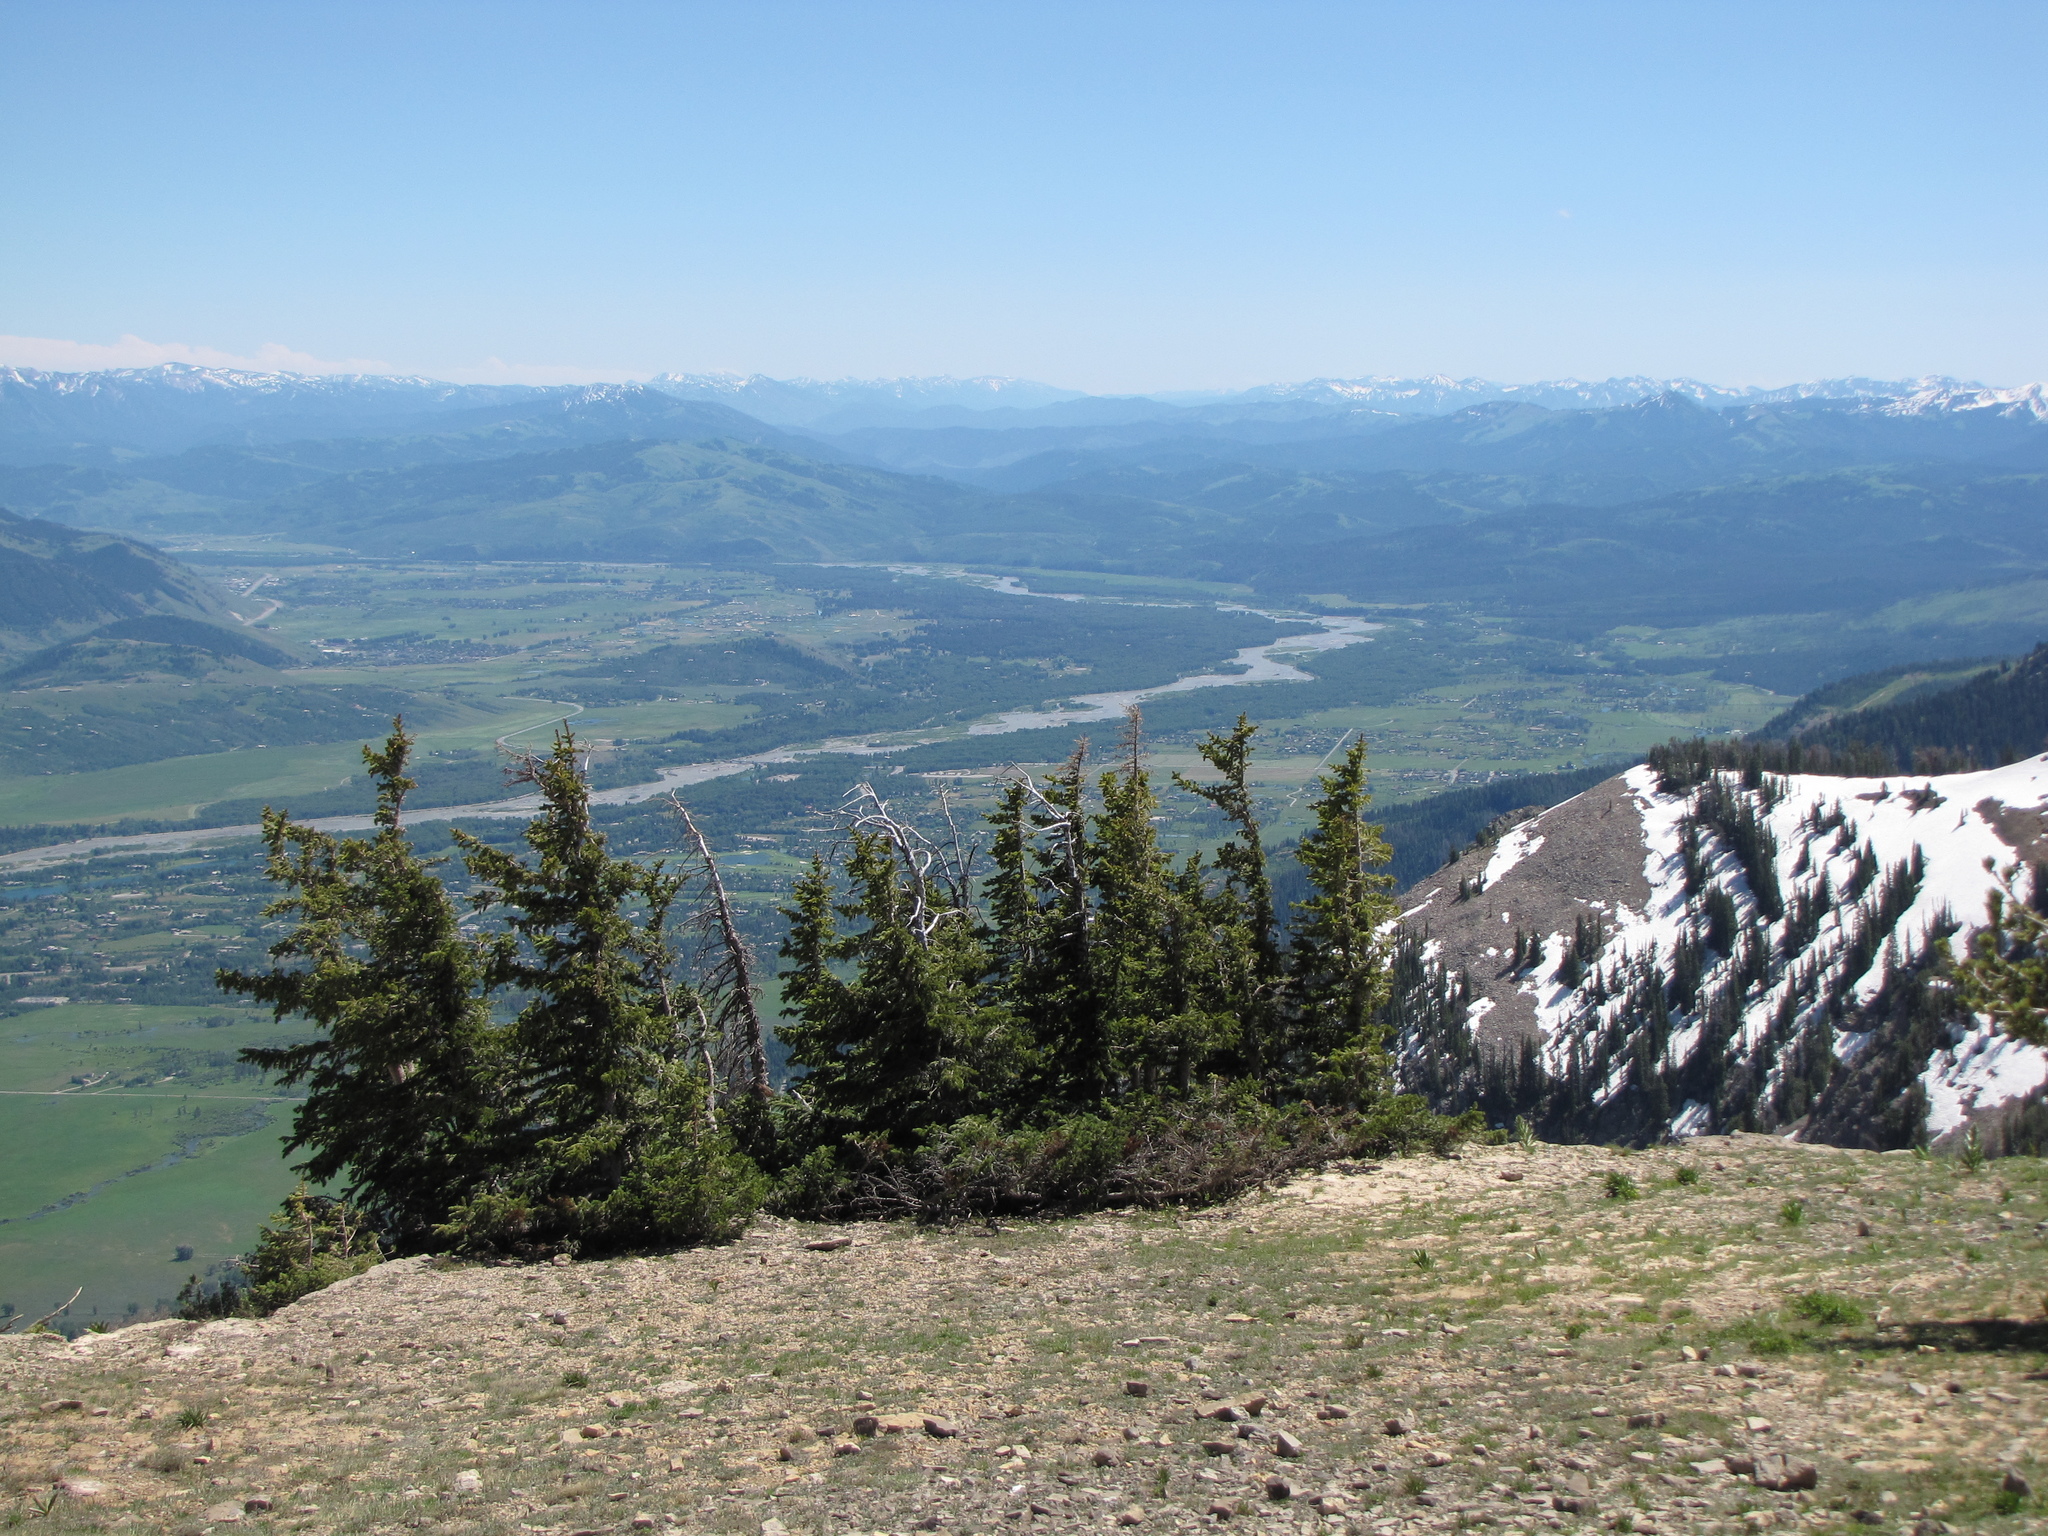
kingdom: Plantae
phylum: Tracheophyta
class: Pinopsida
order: Pinales
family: Pinaceae
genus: Abies
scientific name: Abies lasiocarpa
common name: Subalpine fir
